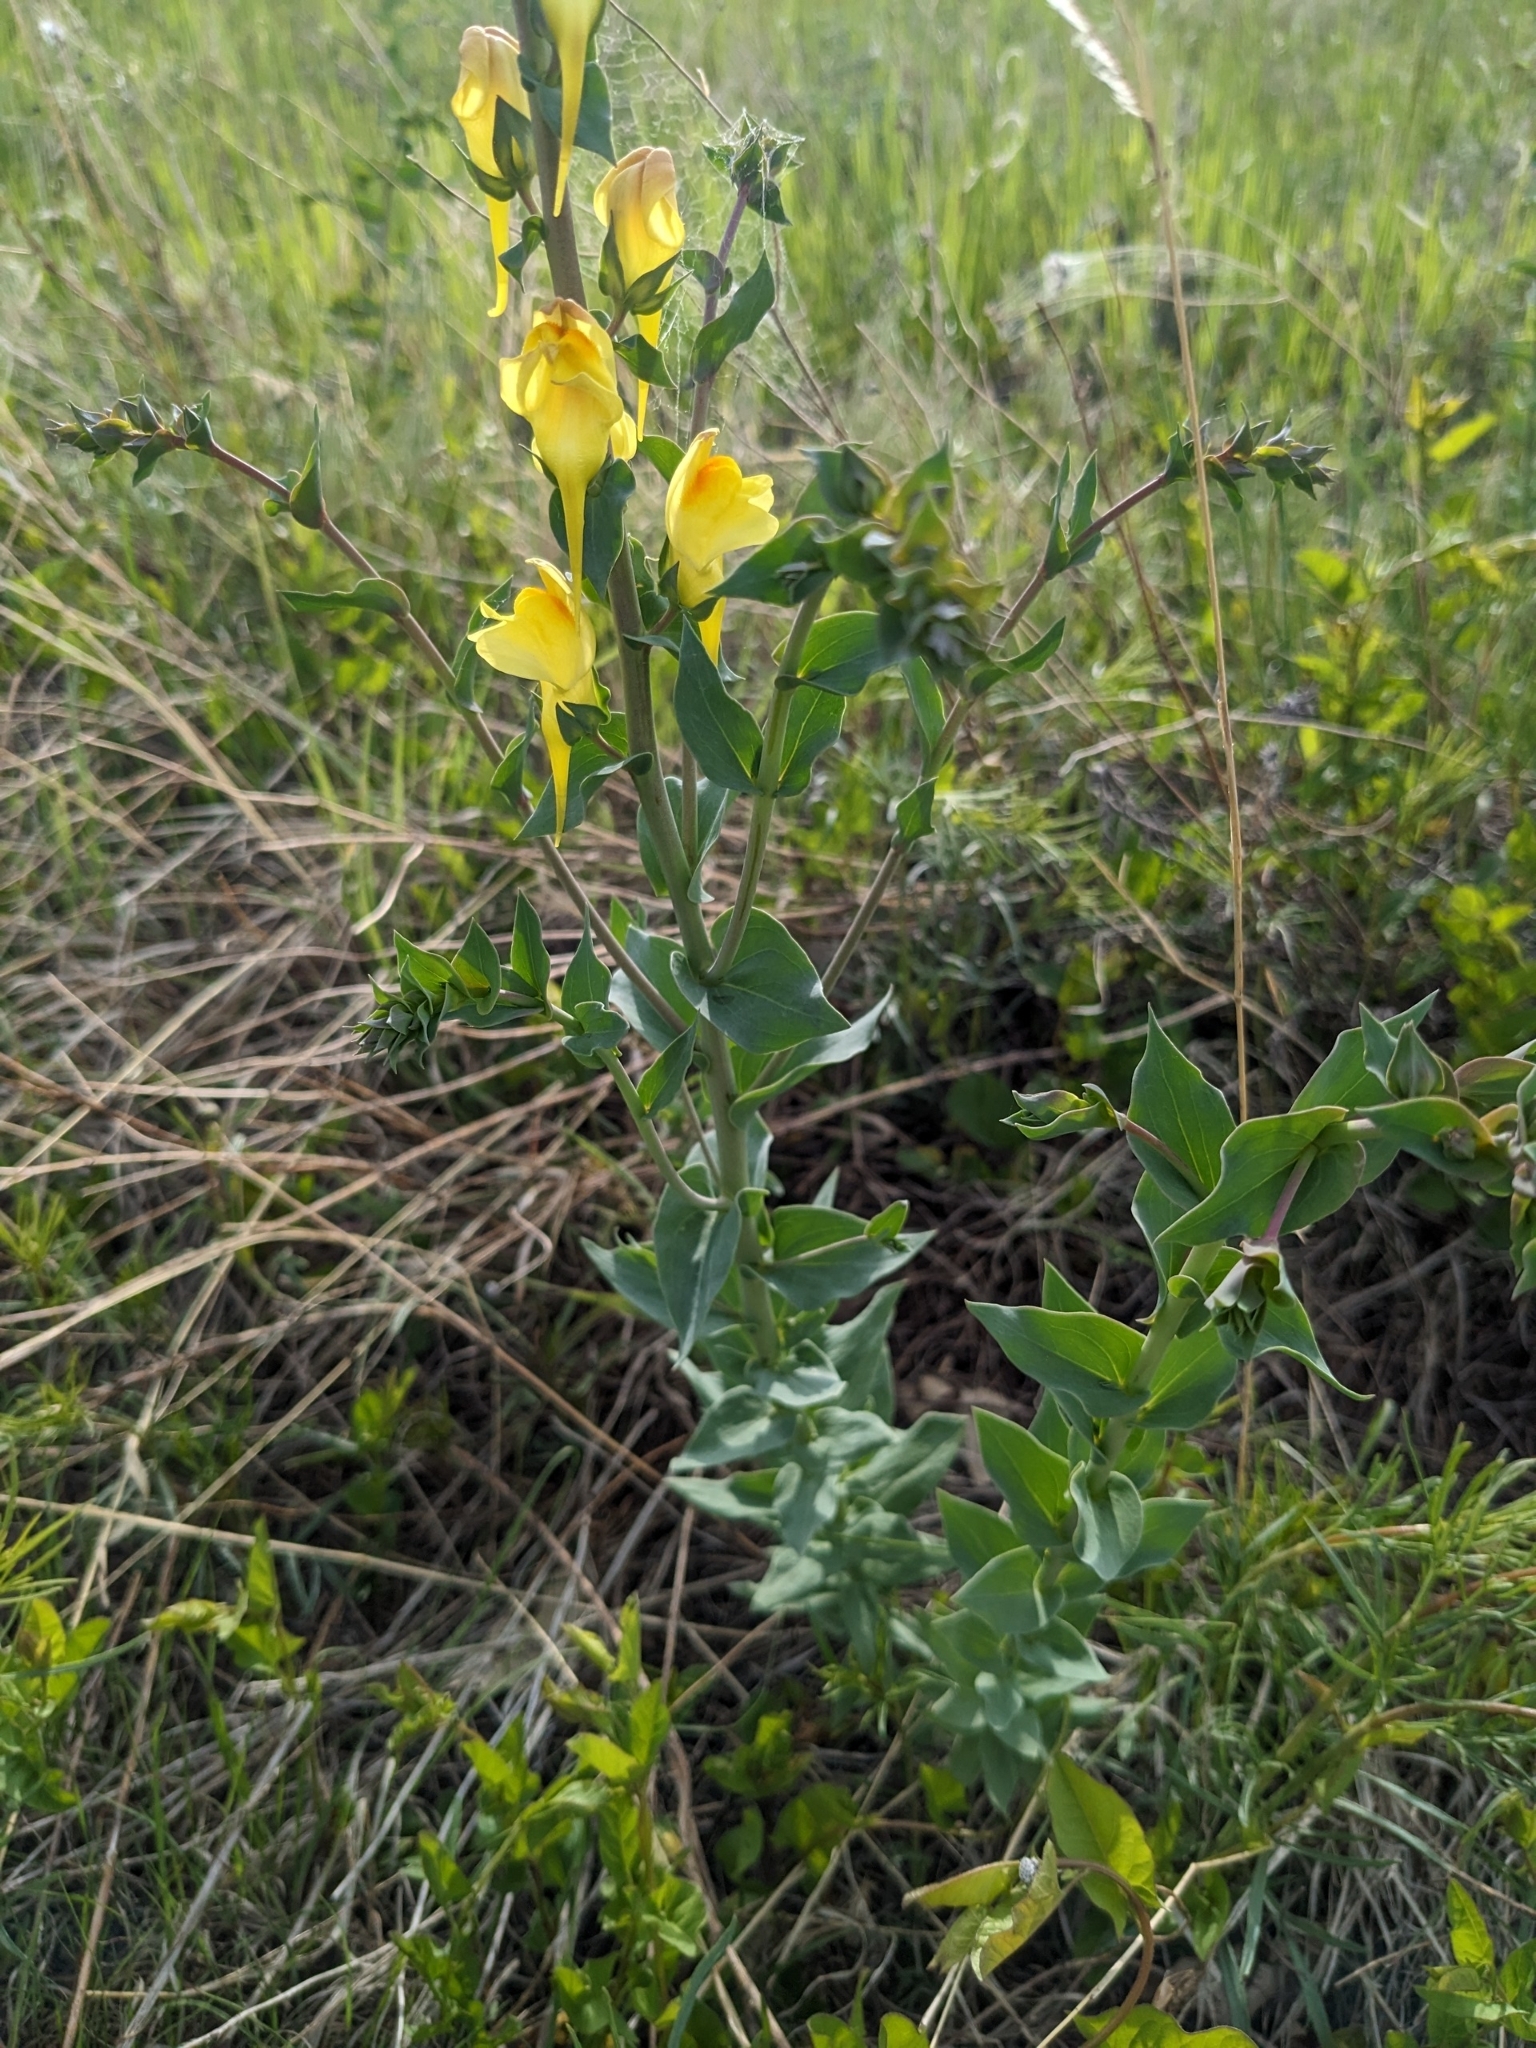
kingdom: Plantae
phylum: Tracheophyta
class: Magnoliopsida
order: Lamiales
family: Plantaginaceae
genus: Linaria
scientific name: Linaria dalmatica
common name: Dalmatian toadflax
